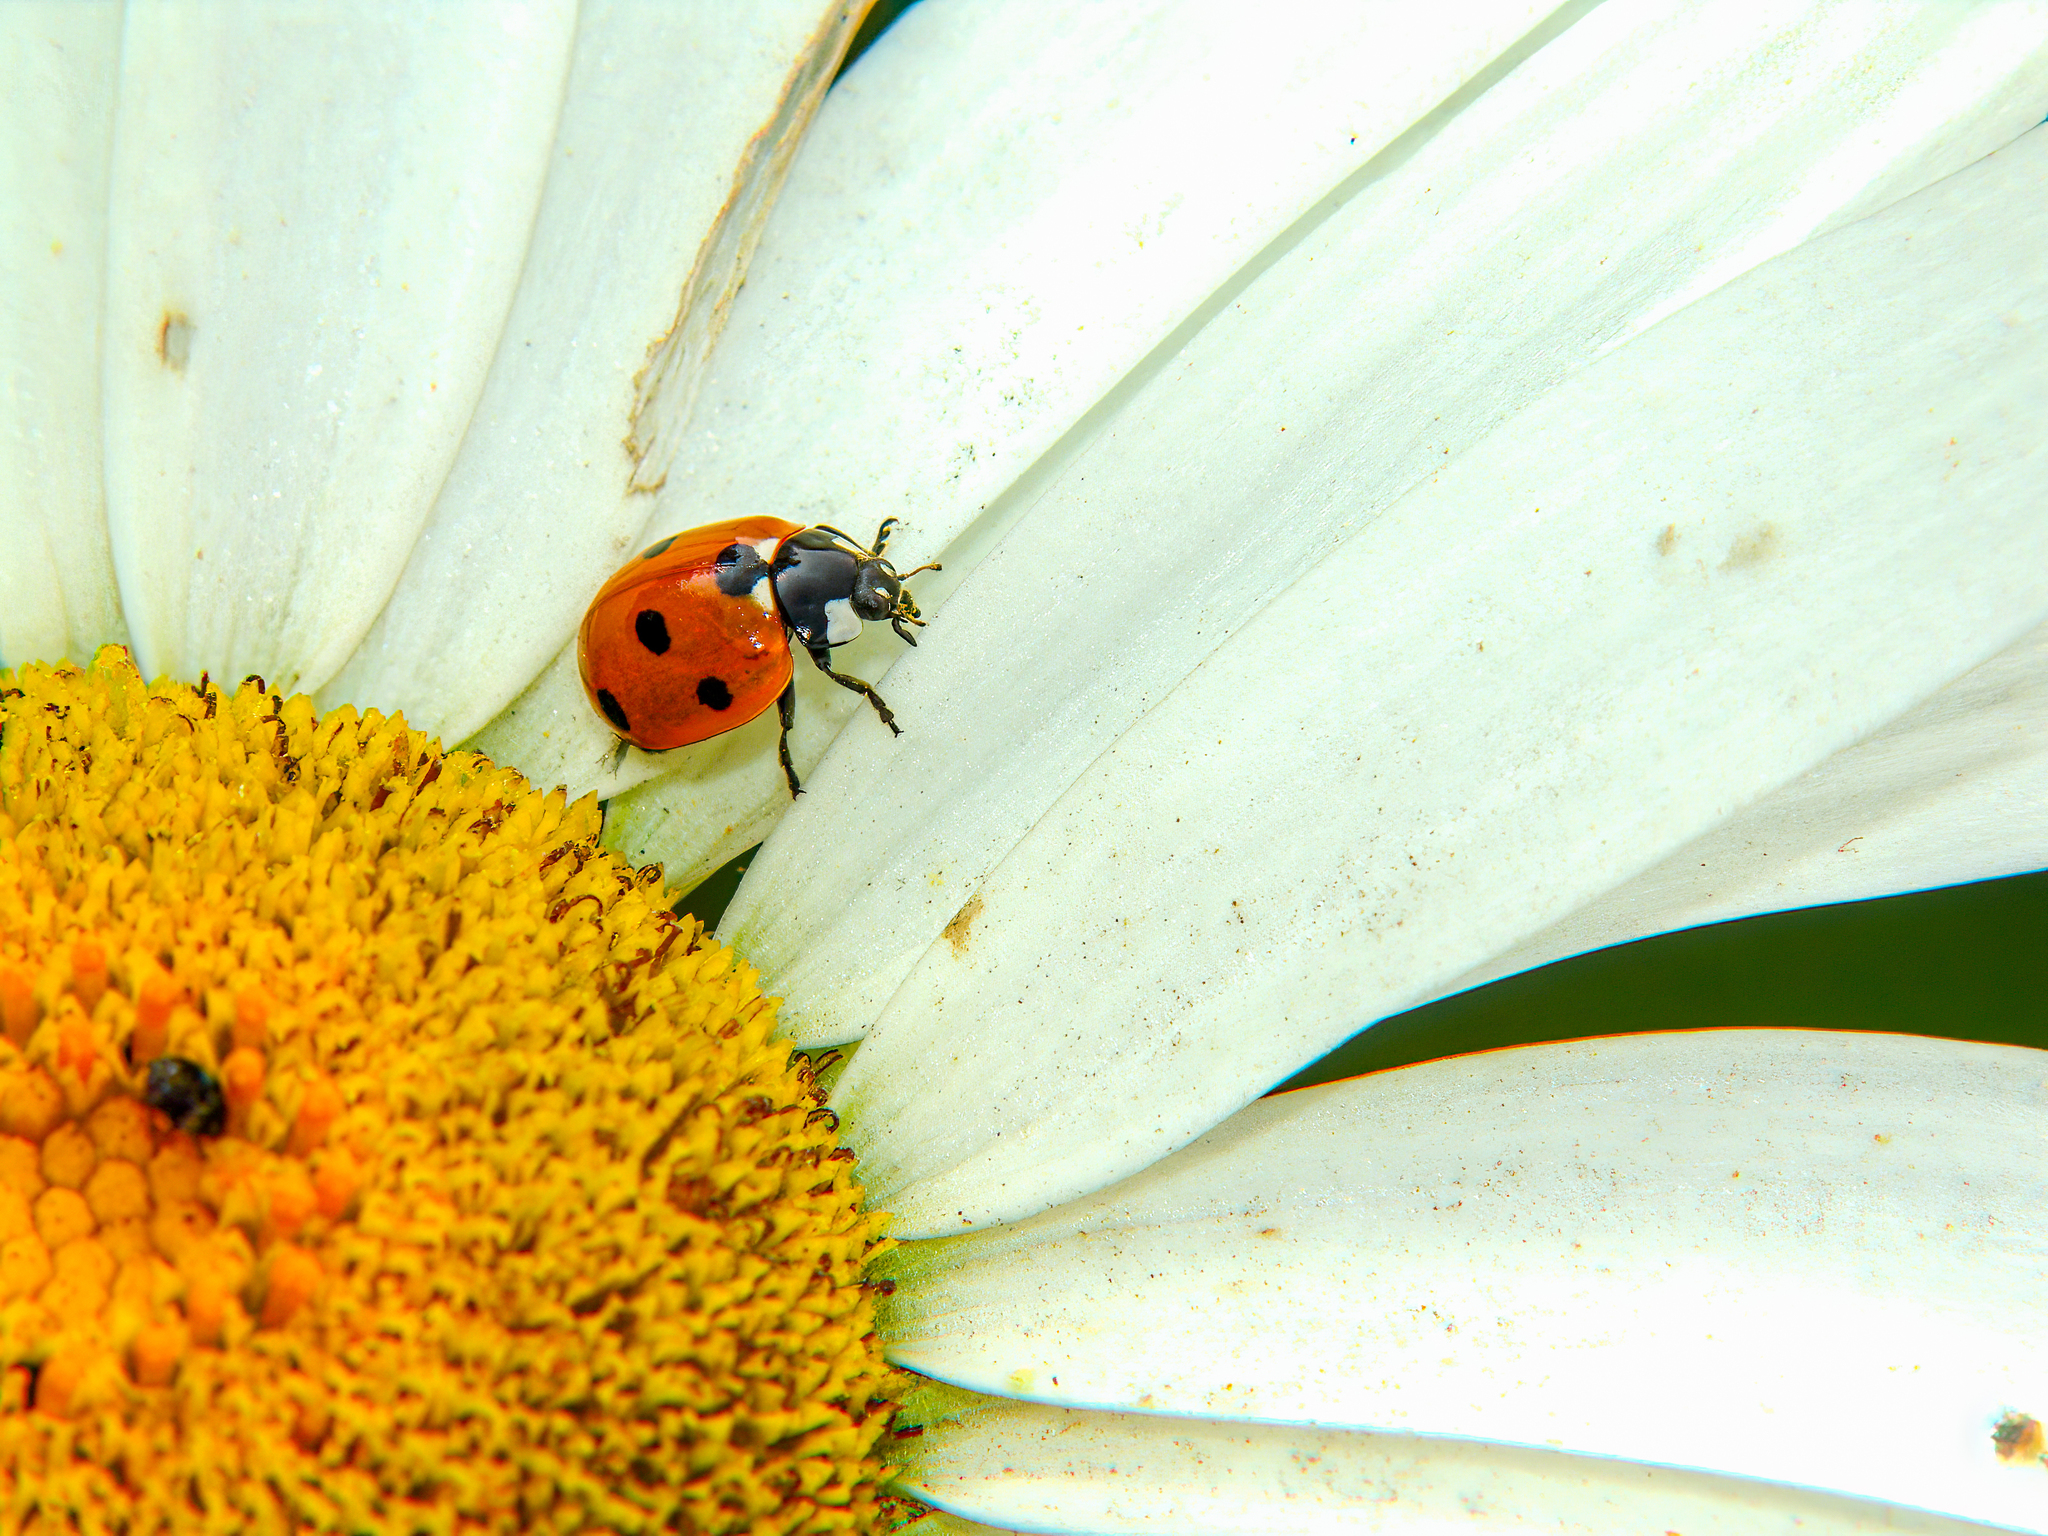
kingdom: Animalia
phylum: Arthropoda
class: Insecta
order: Coleoptera
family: Coccinellidae
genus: Coccinella
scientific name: Coccinella septempunctata
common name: Sevenspotted lady beetle
